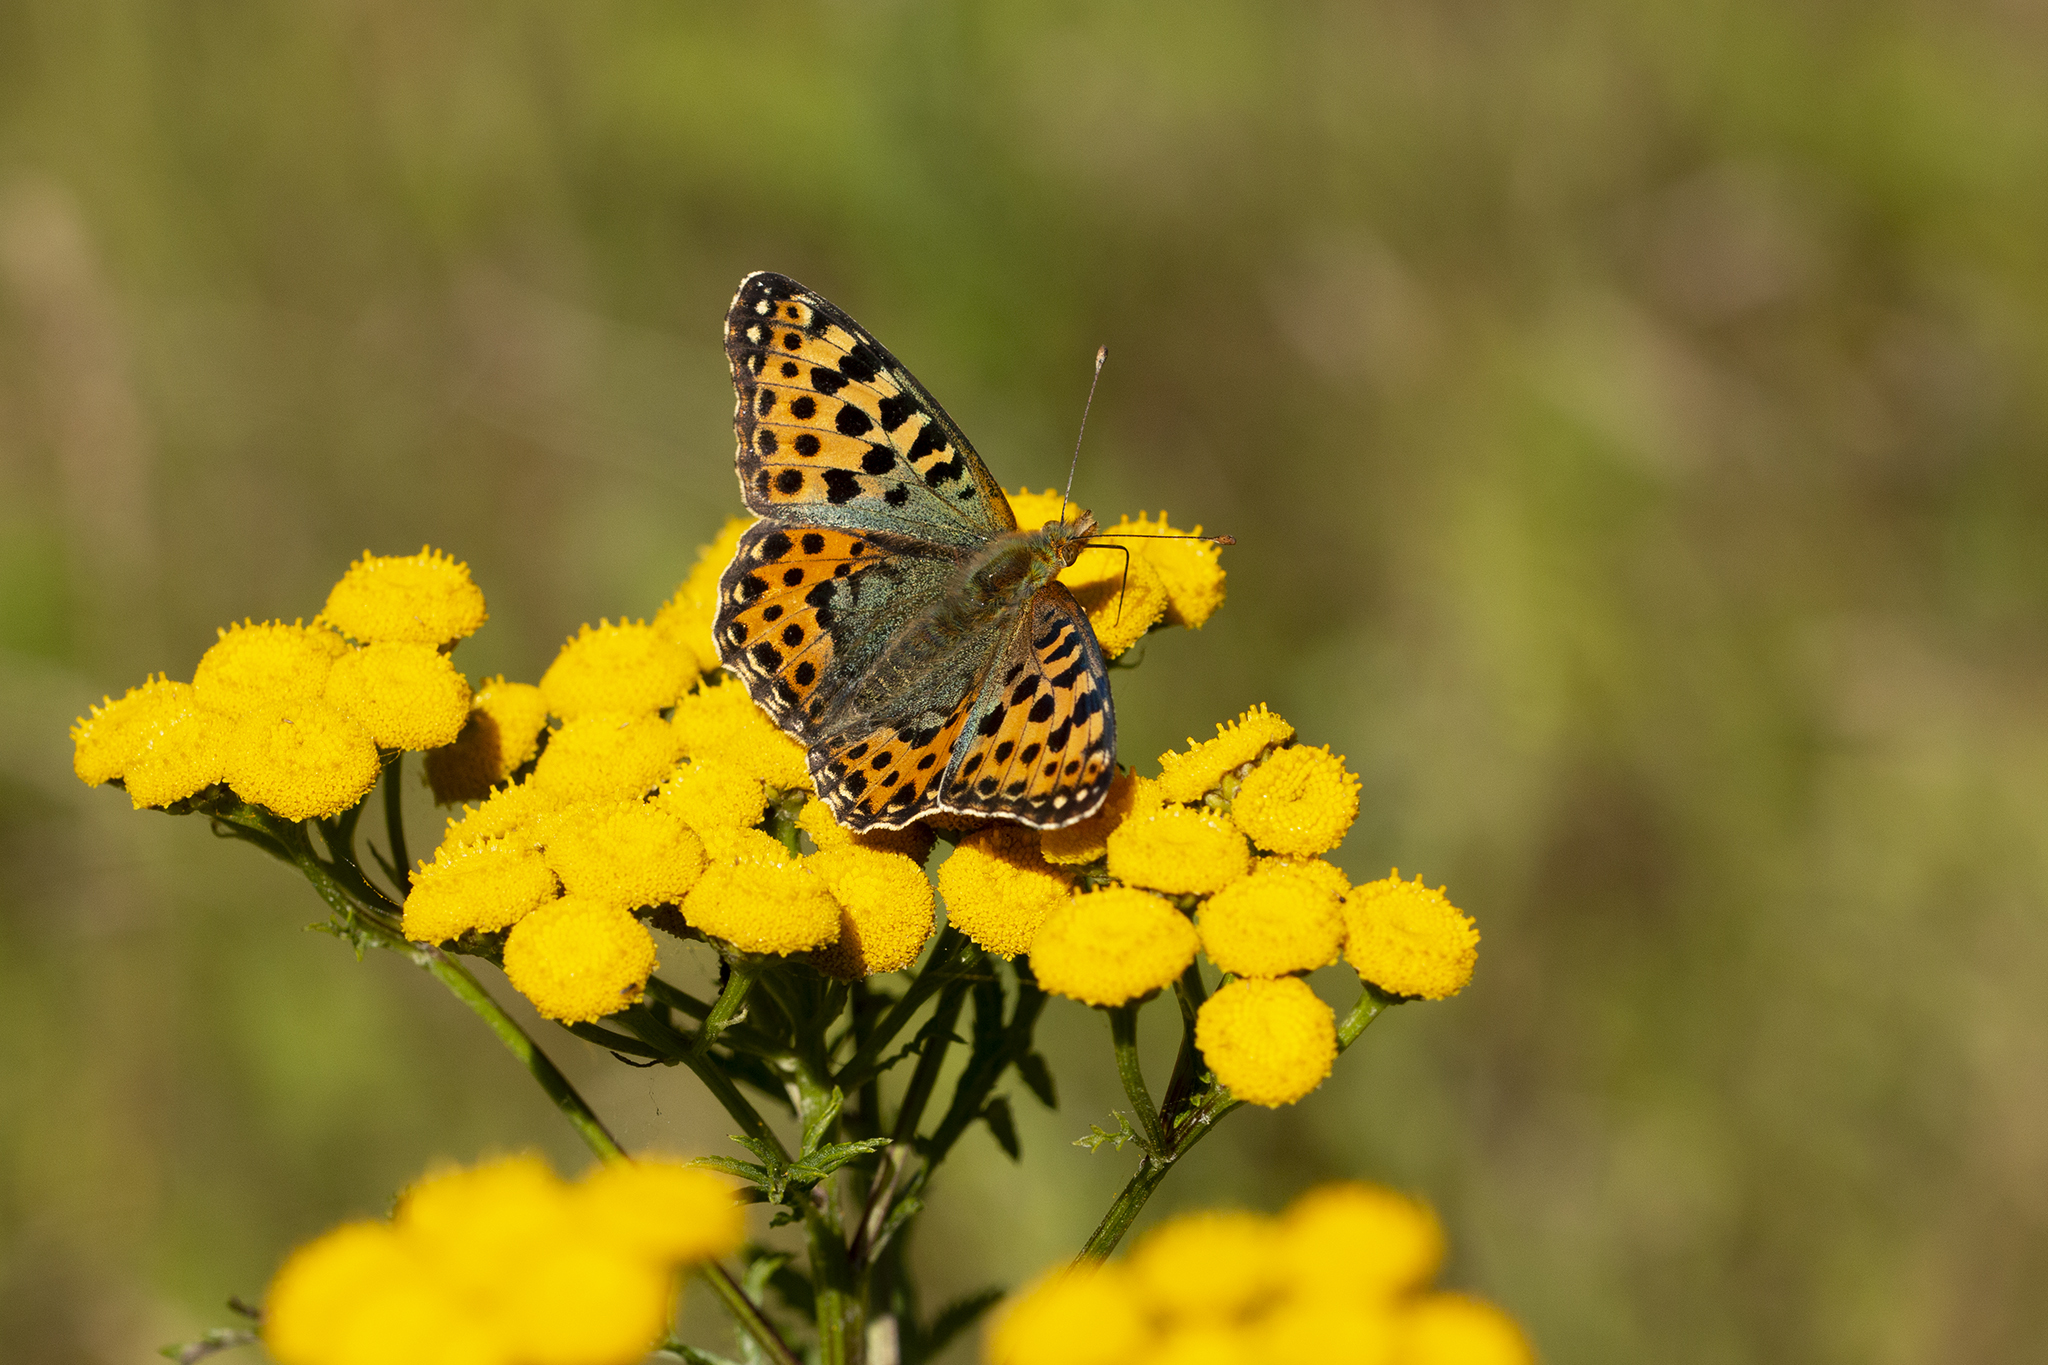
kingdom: Animalia
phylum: Arthropoda
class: Insecta
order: Lepidoptera
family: Nymphalidae
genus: Issoria
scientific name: Issoria lathonia
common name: Queen of spain fritillary
